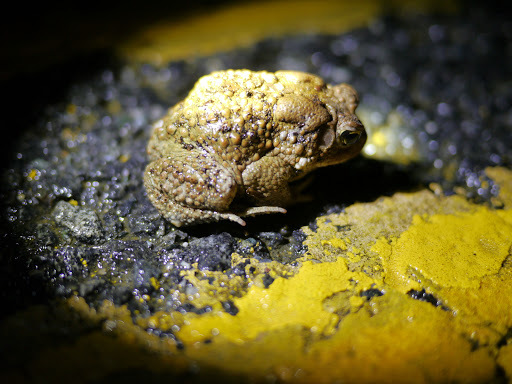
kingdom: Animalia
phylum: Chordata
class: Amphibia
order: Anura
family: Bufonidae
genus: Anaxyrus
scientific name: Anaxyrus americanus
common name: American toad
